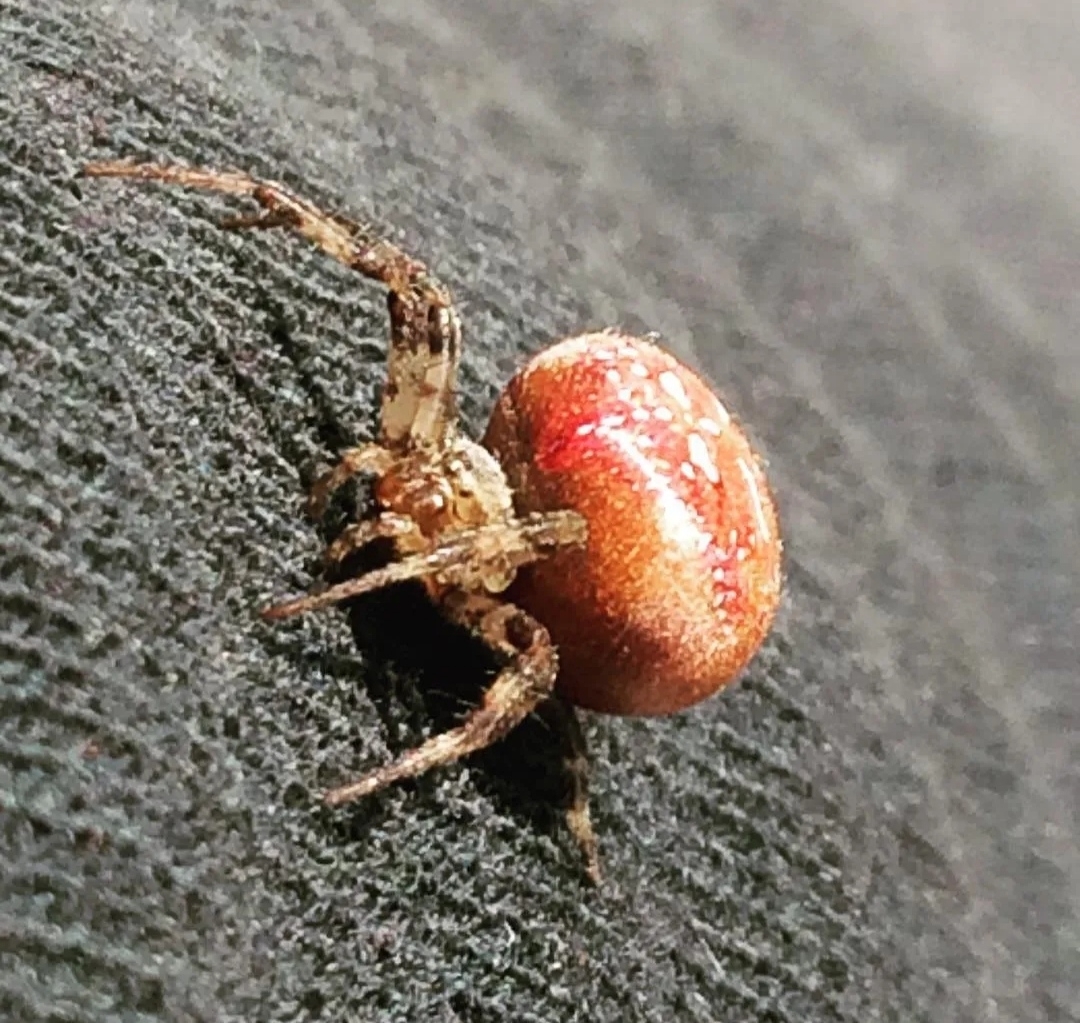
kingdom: Animalia
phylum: Arthropoda
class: Arachnida
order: Araneae
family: Araneidae
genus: Araneus
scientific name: Araneus quadratus
